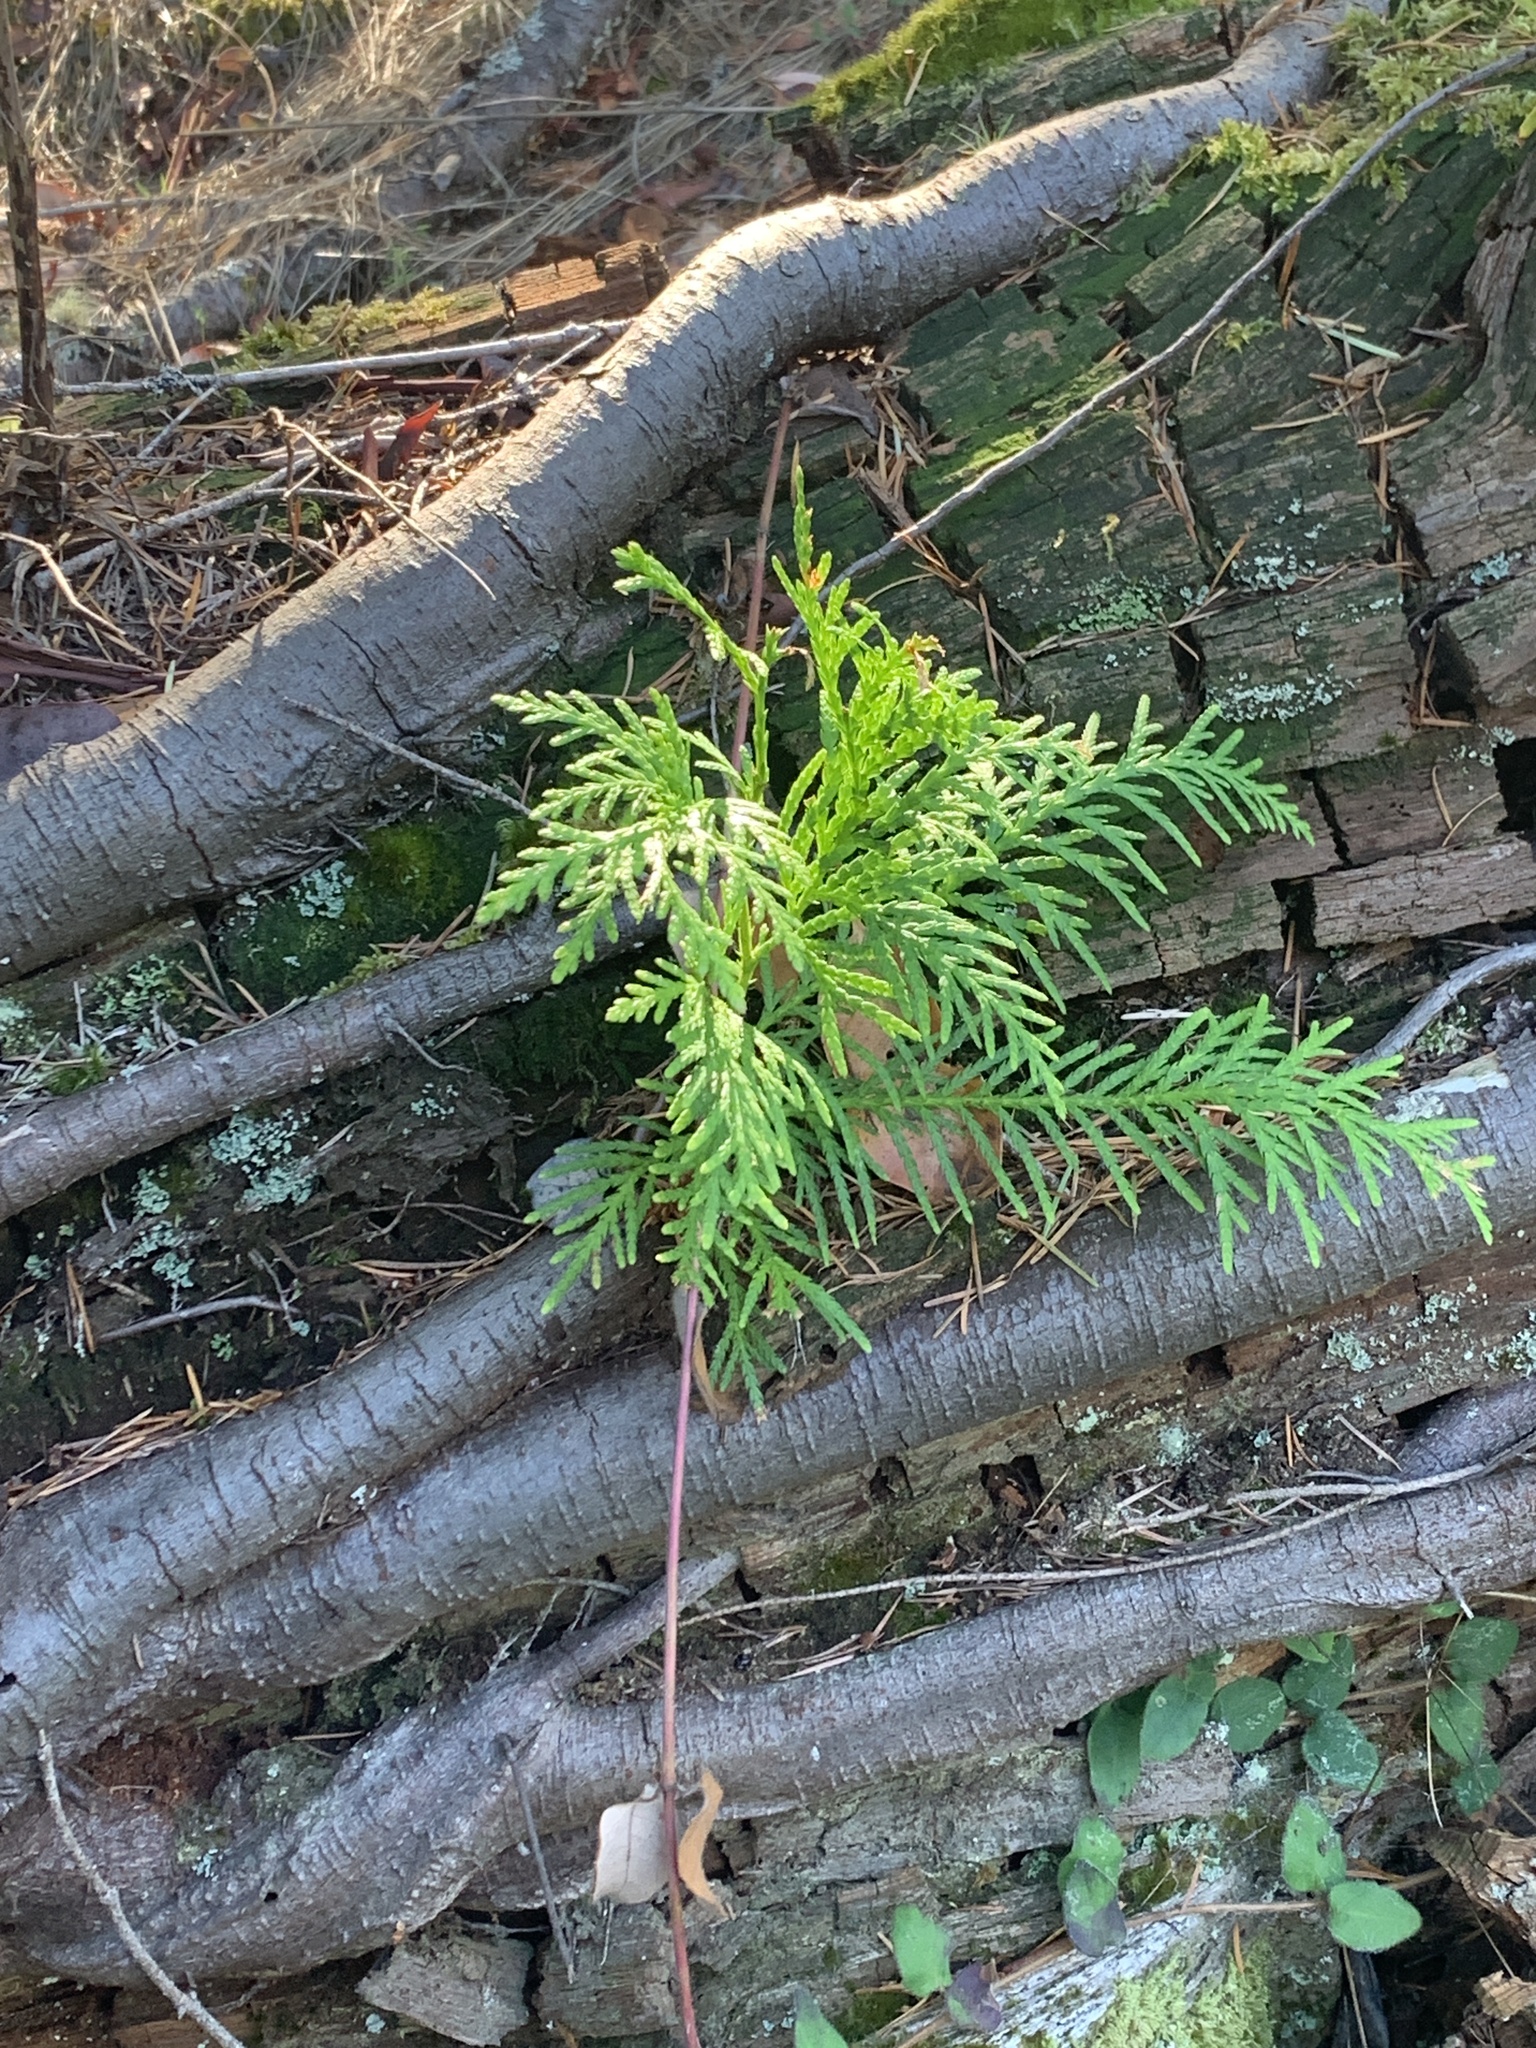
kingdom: Plantae
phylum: Tracheophyta
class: Pinopsida
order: Pinales
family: Cupressaceae
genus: Thuja
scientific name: Thuja plicata
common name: Western red-cedar
